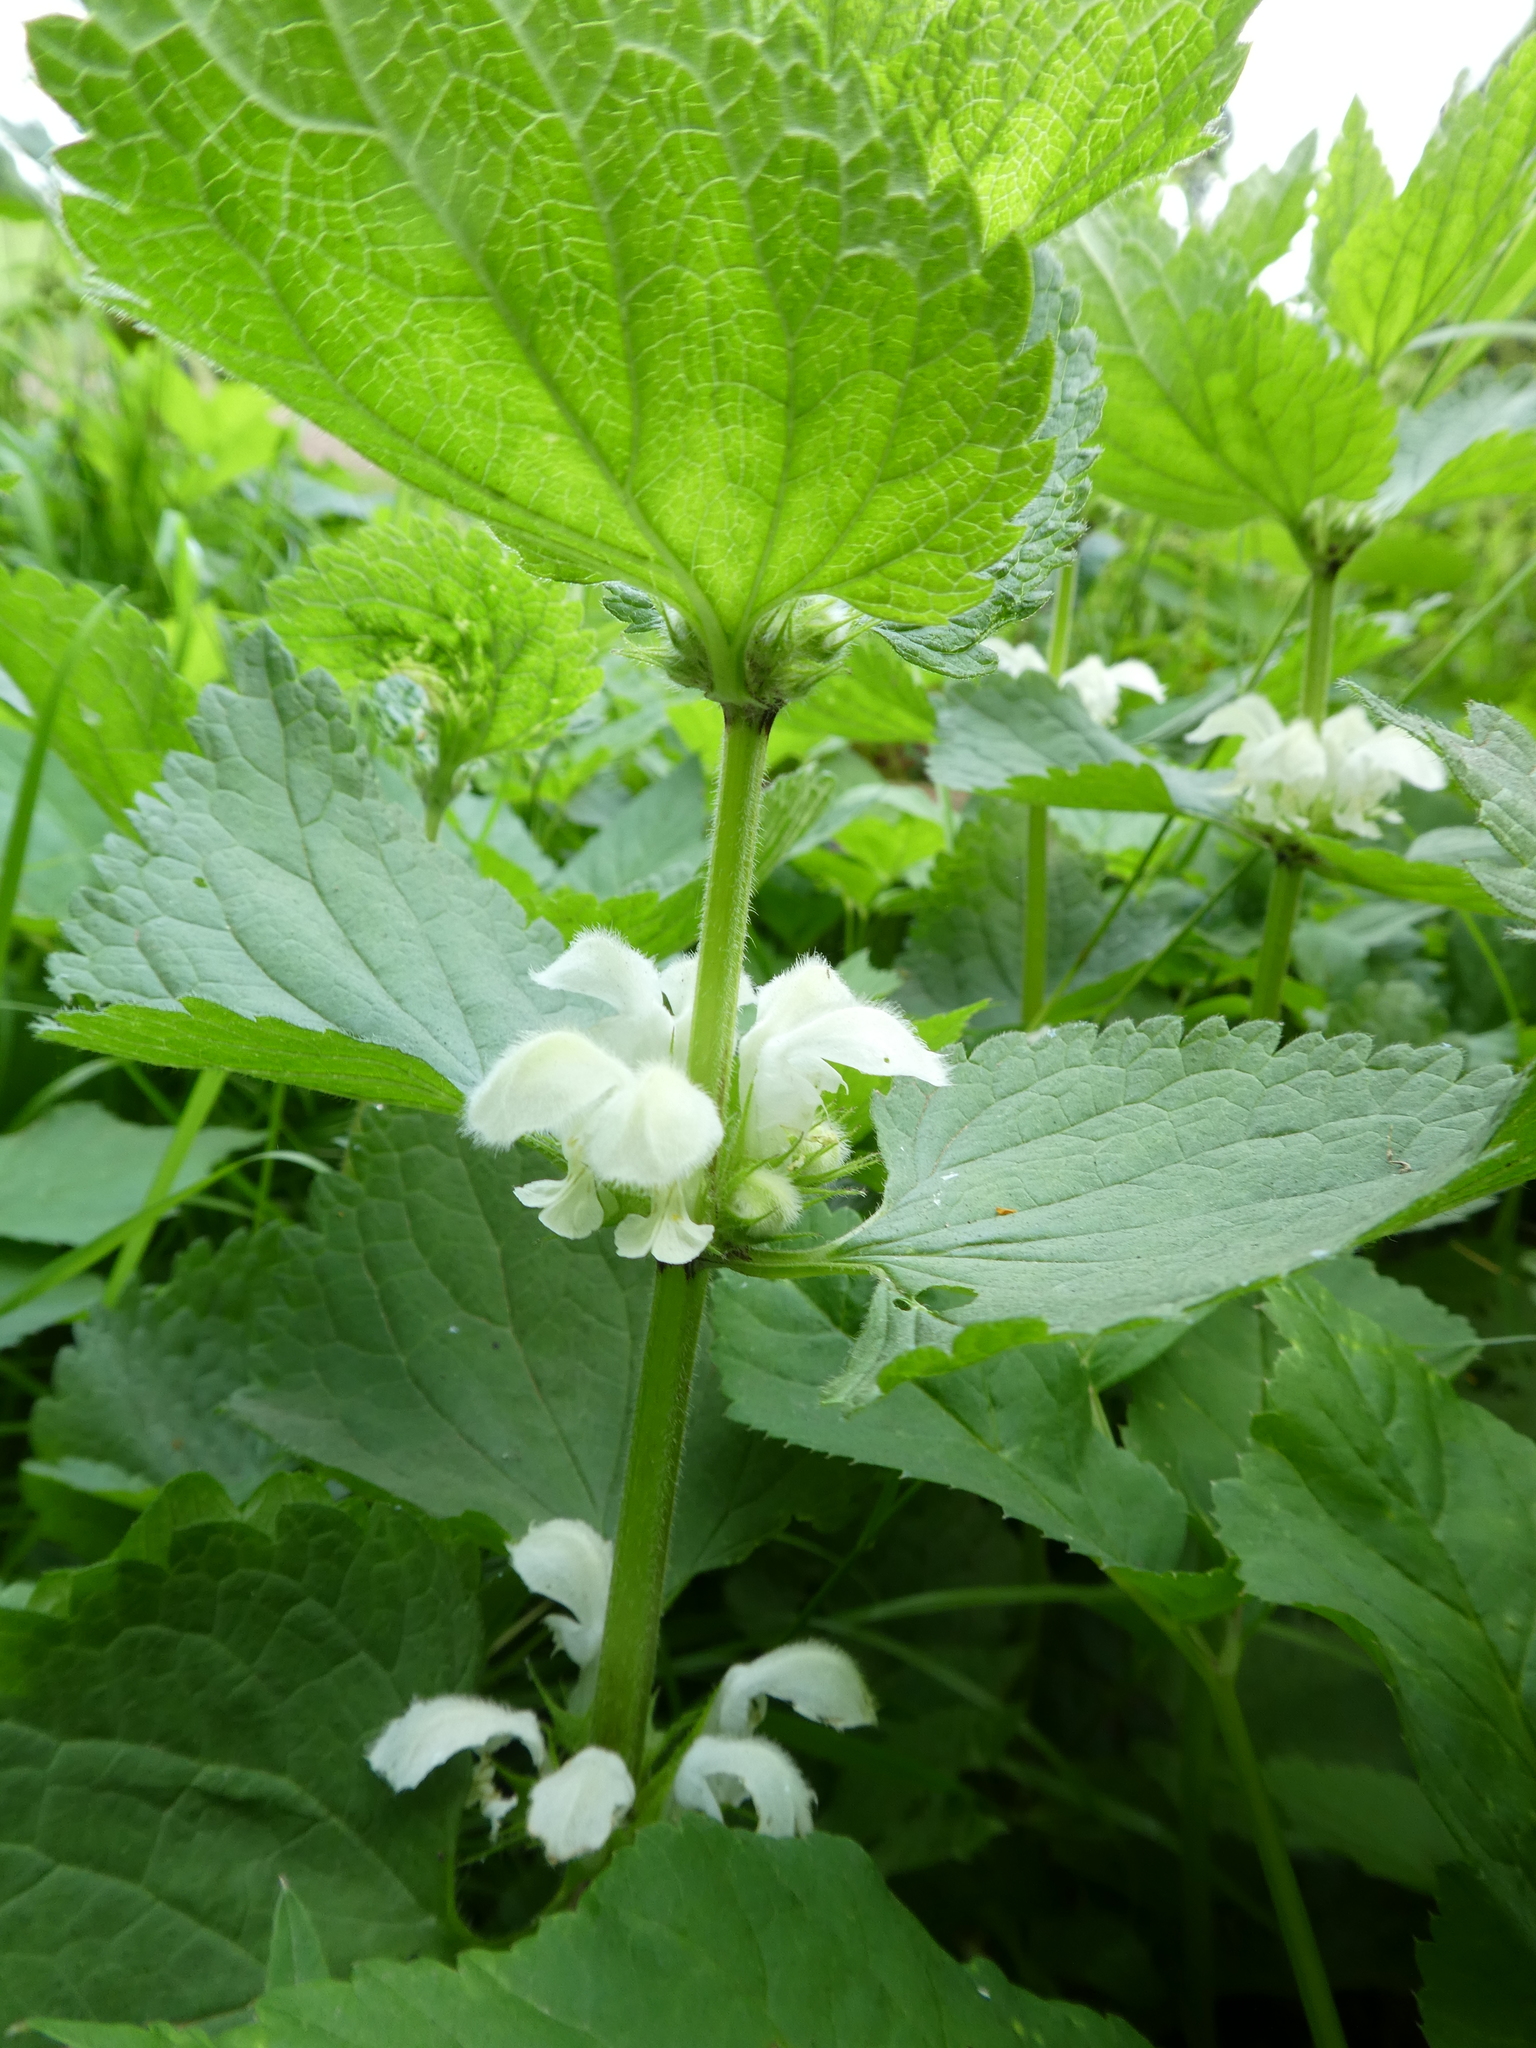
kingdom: Plantae
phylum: Tracheophyta
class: Magnoliopsida
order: Lamiales
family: Lamiaceae
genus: Lamium
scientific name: Lamium album
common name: White dead-nettle
